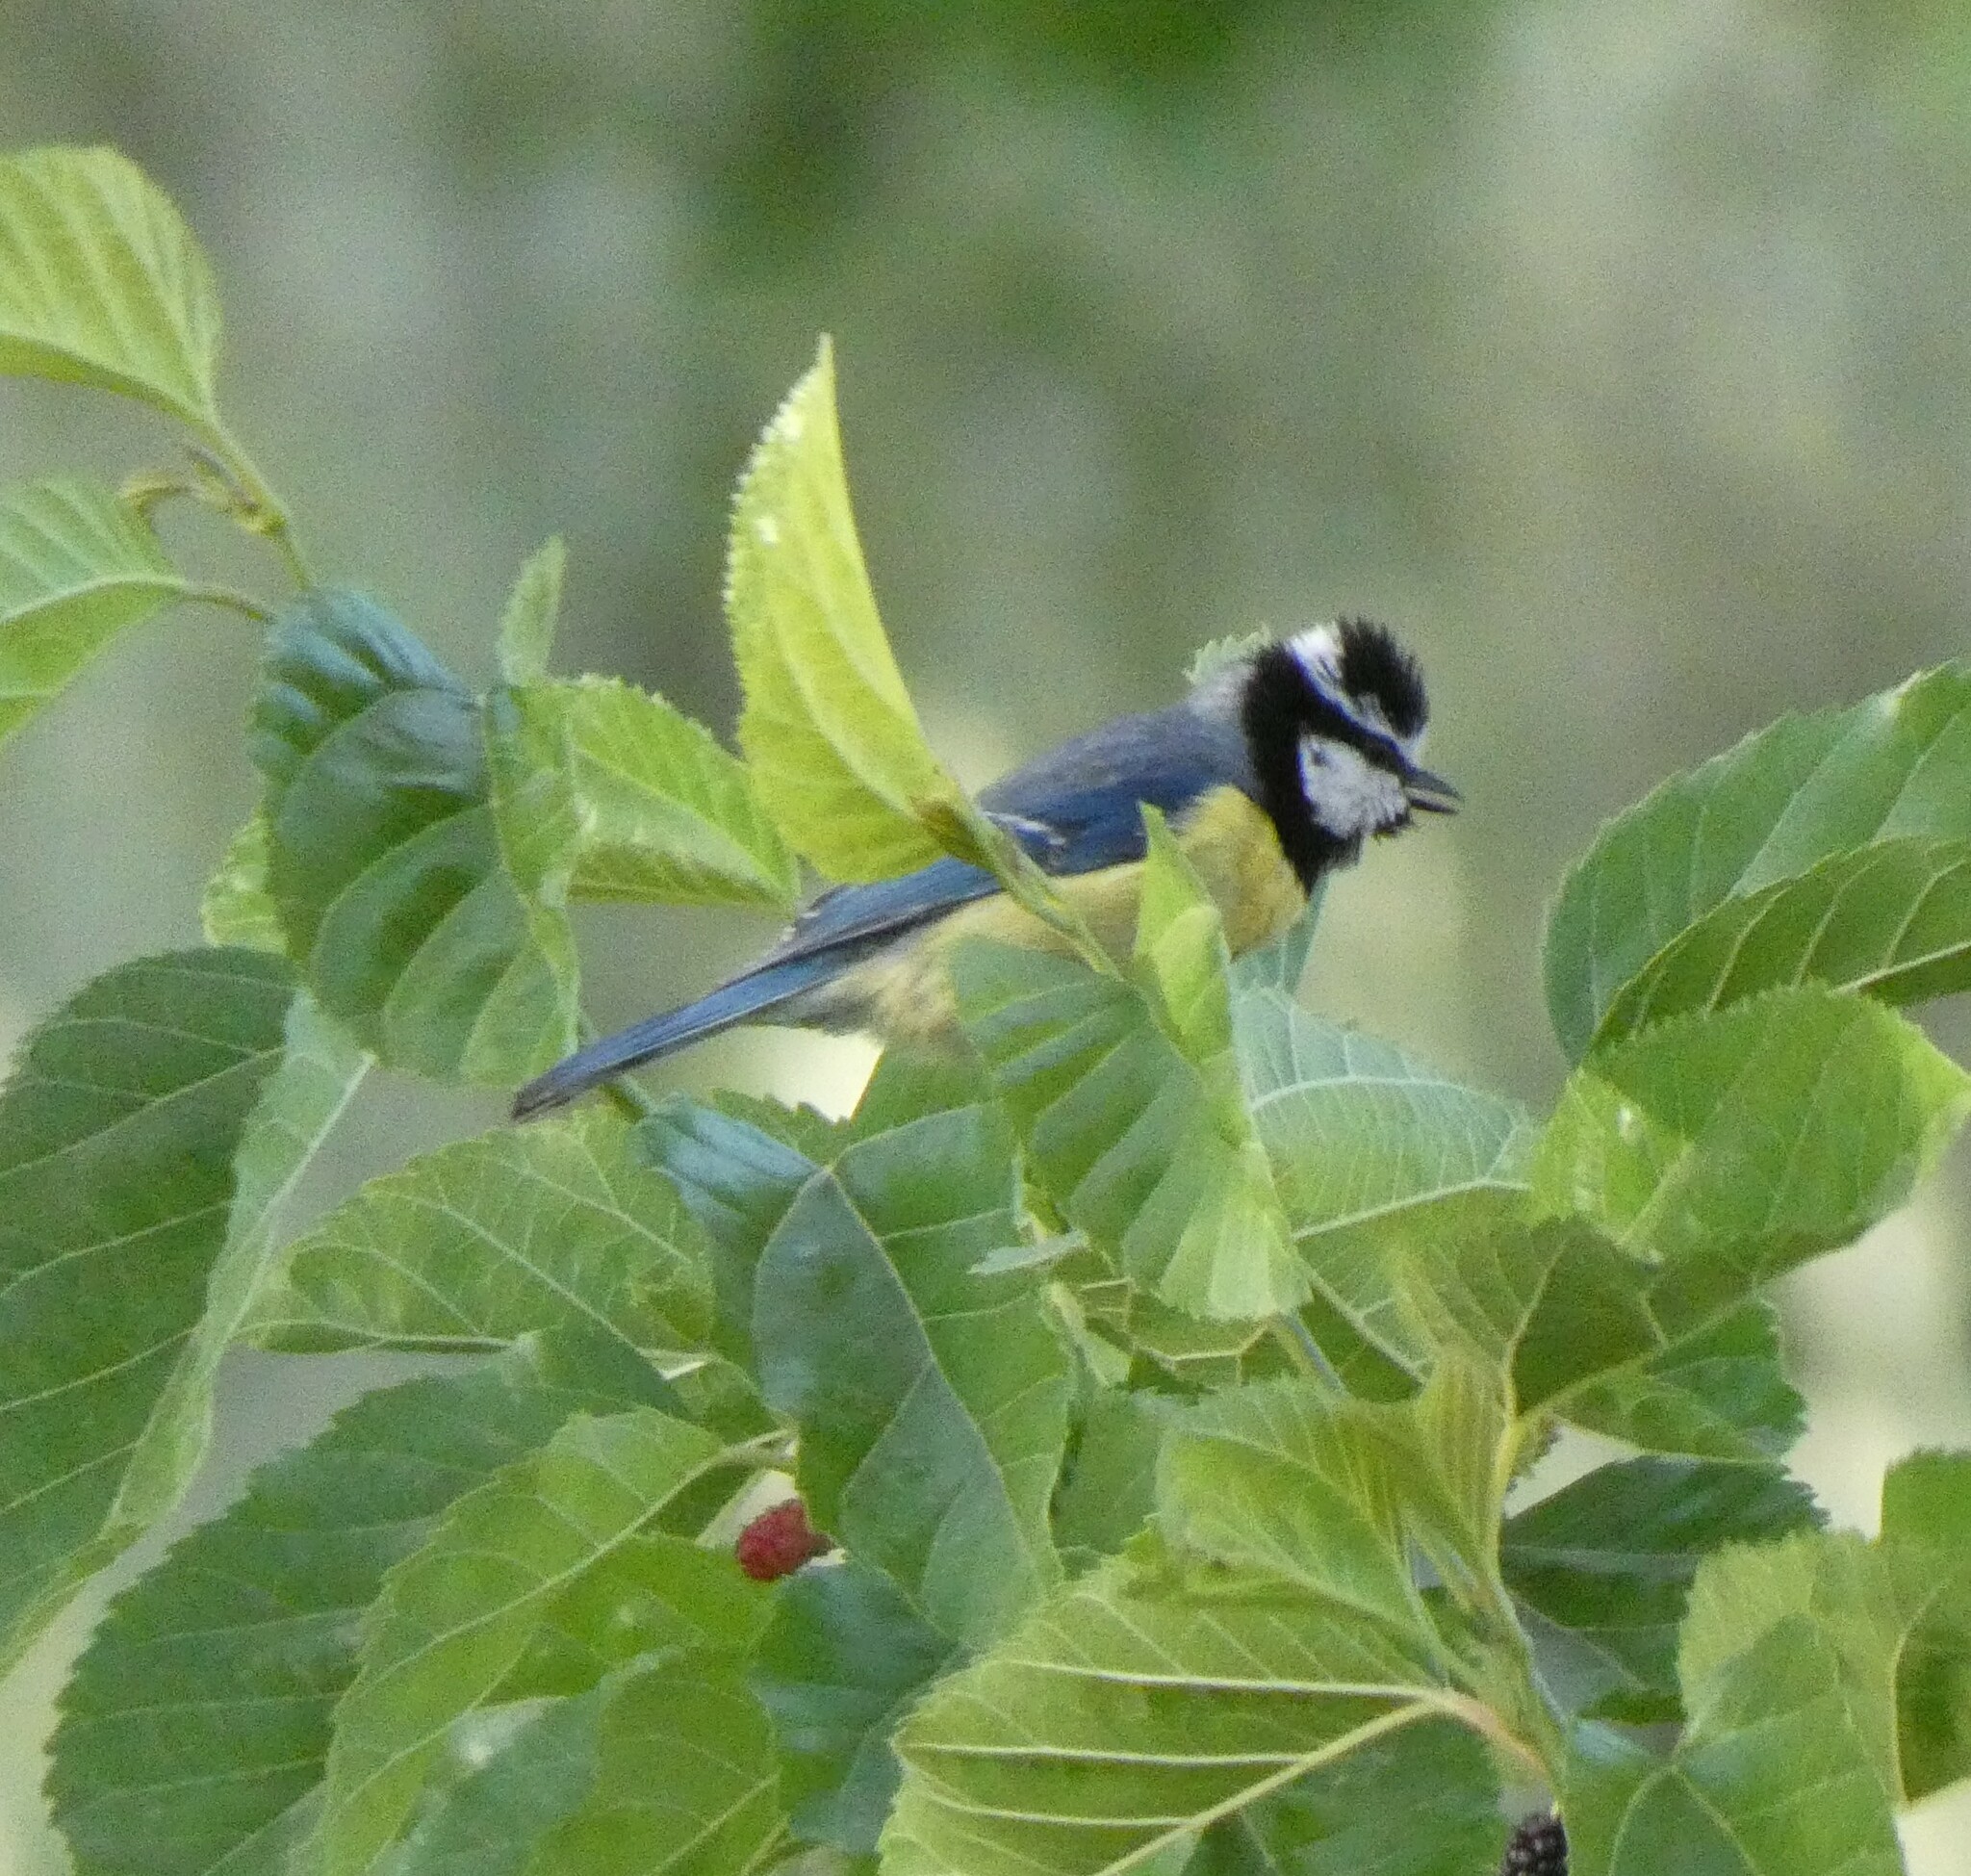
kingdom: Animalia
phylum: Chordata
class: Aves
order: Passeriformes
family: Paridae
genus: Cyanistes
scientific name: Cyanistes teneriffae
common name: African blue tit
